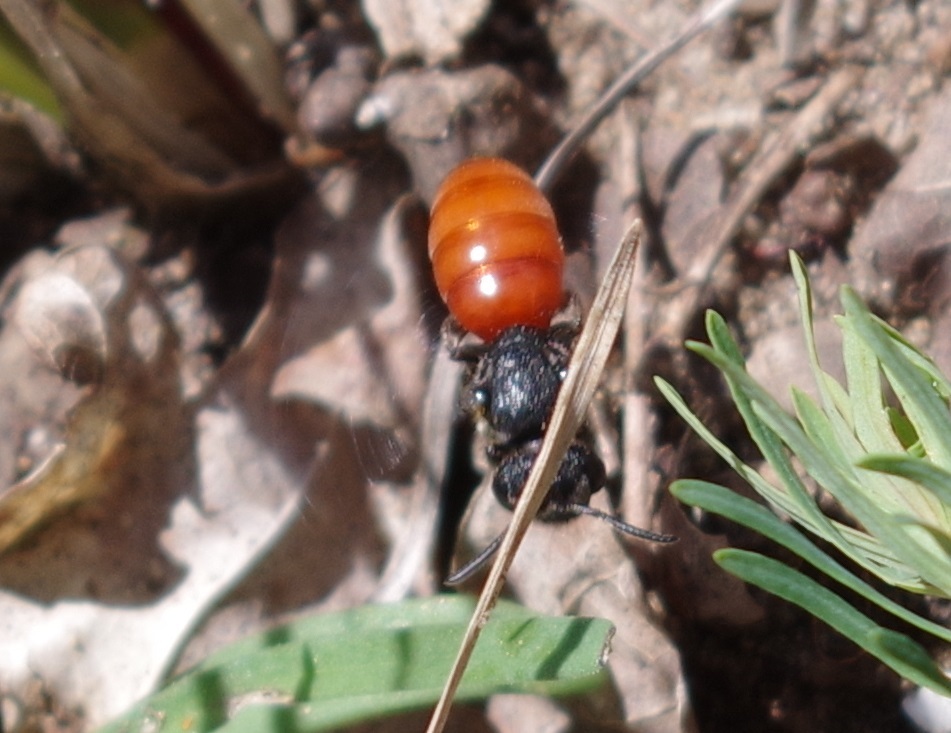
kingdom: Animalia
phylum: Arthropoda
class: Insecta
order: Hymenoptera
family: Halictidae
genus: Sphecodes
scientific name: Sphecodes albilabris
